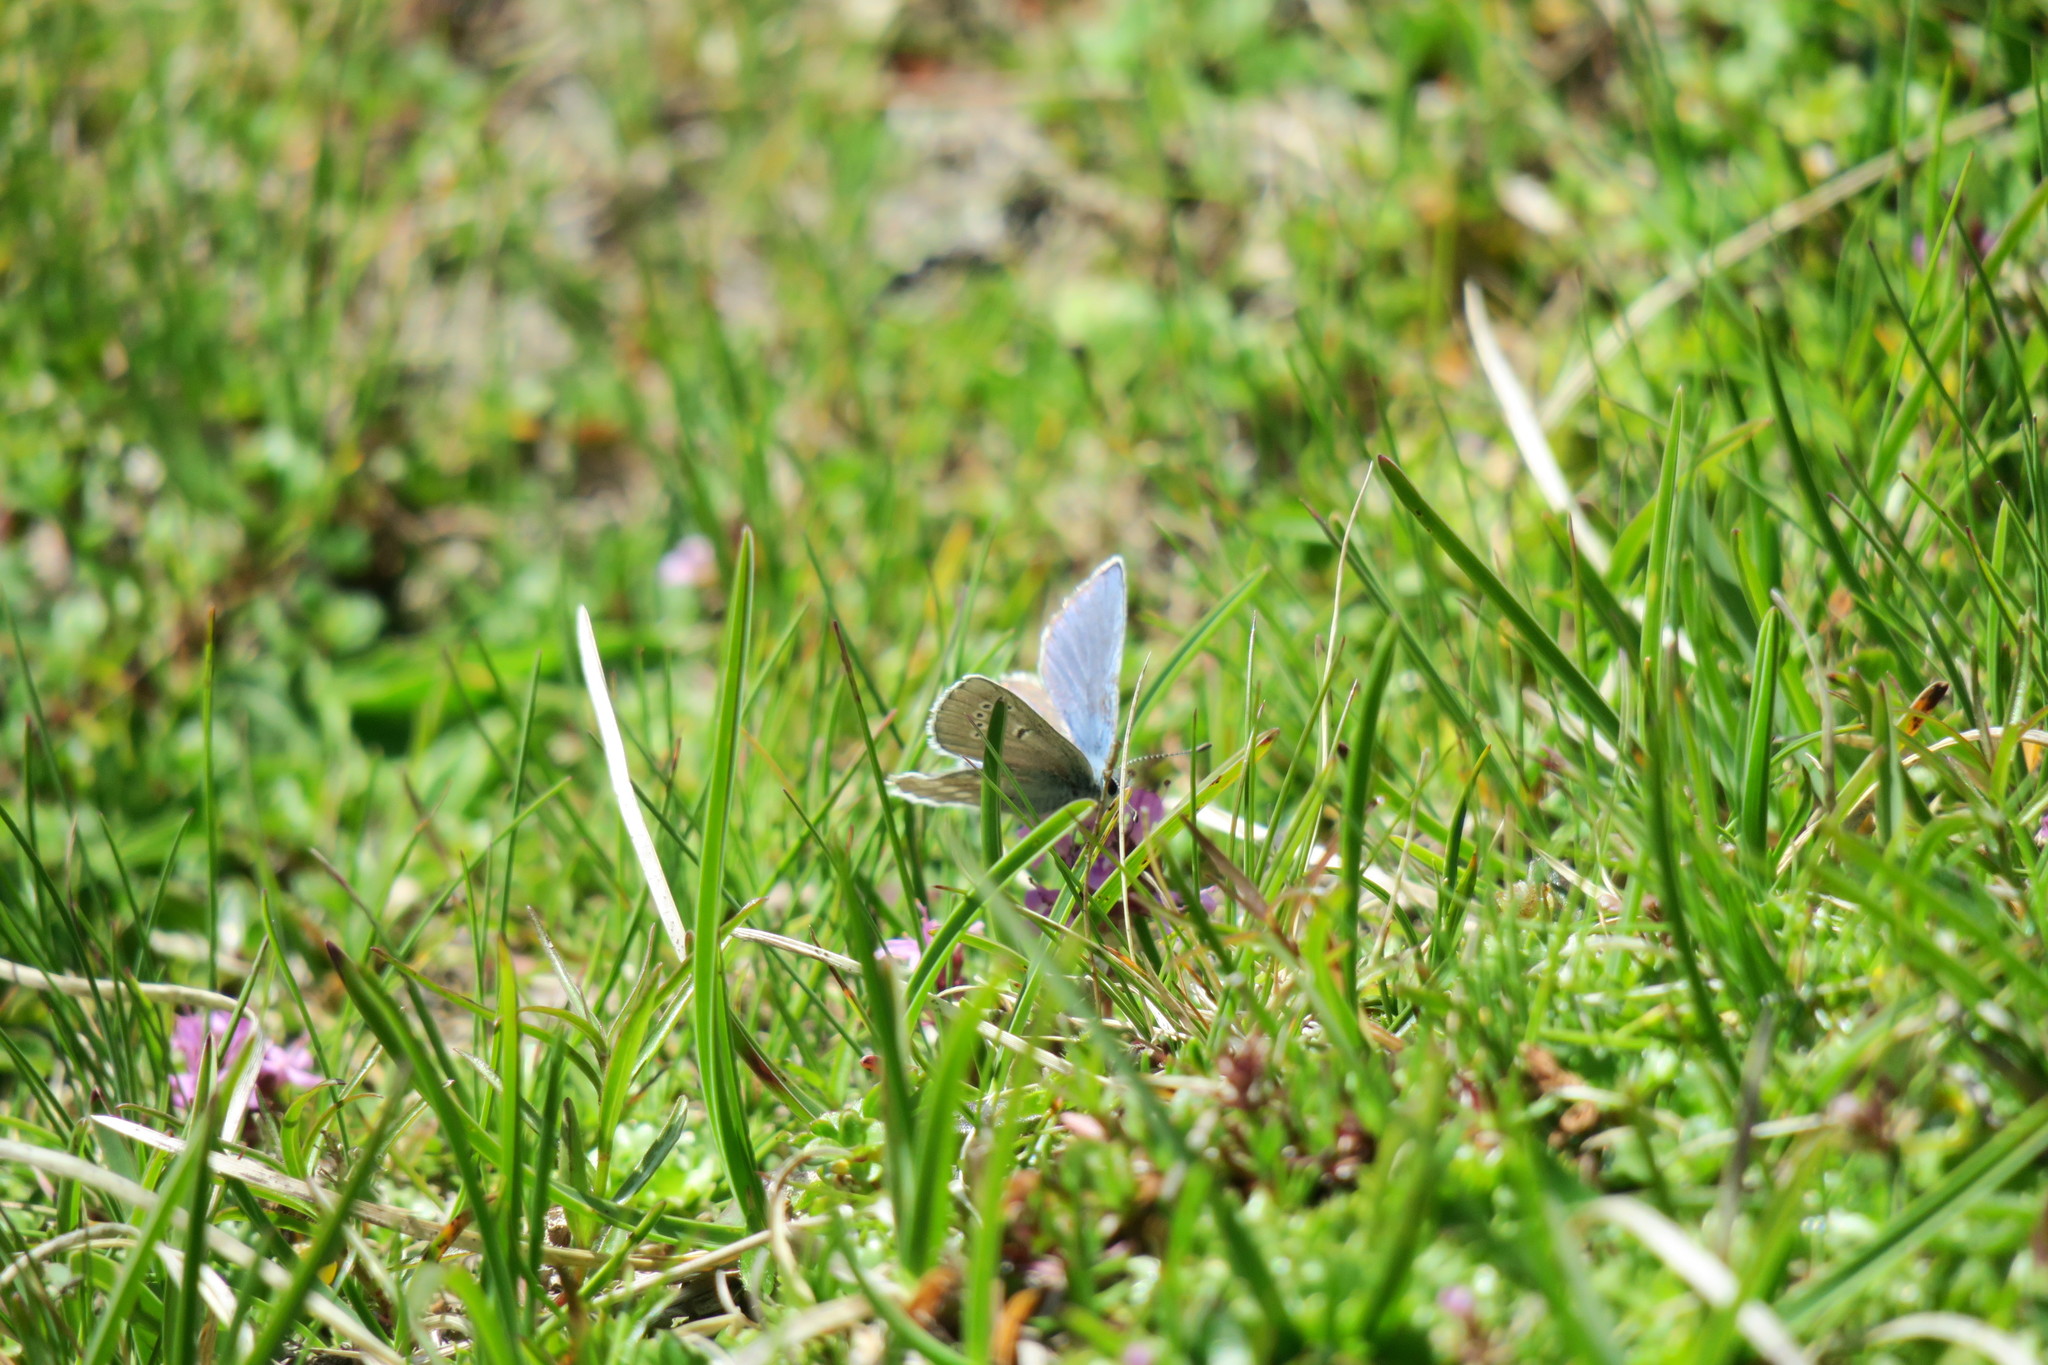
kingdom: Animalia
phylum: Arthropoda
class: Insecta
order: Lepidoptera
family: Lycaenidae
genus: Albulina
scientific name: Albulina orbitulus
